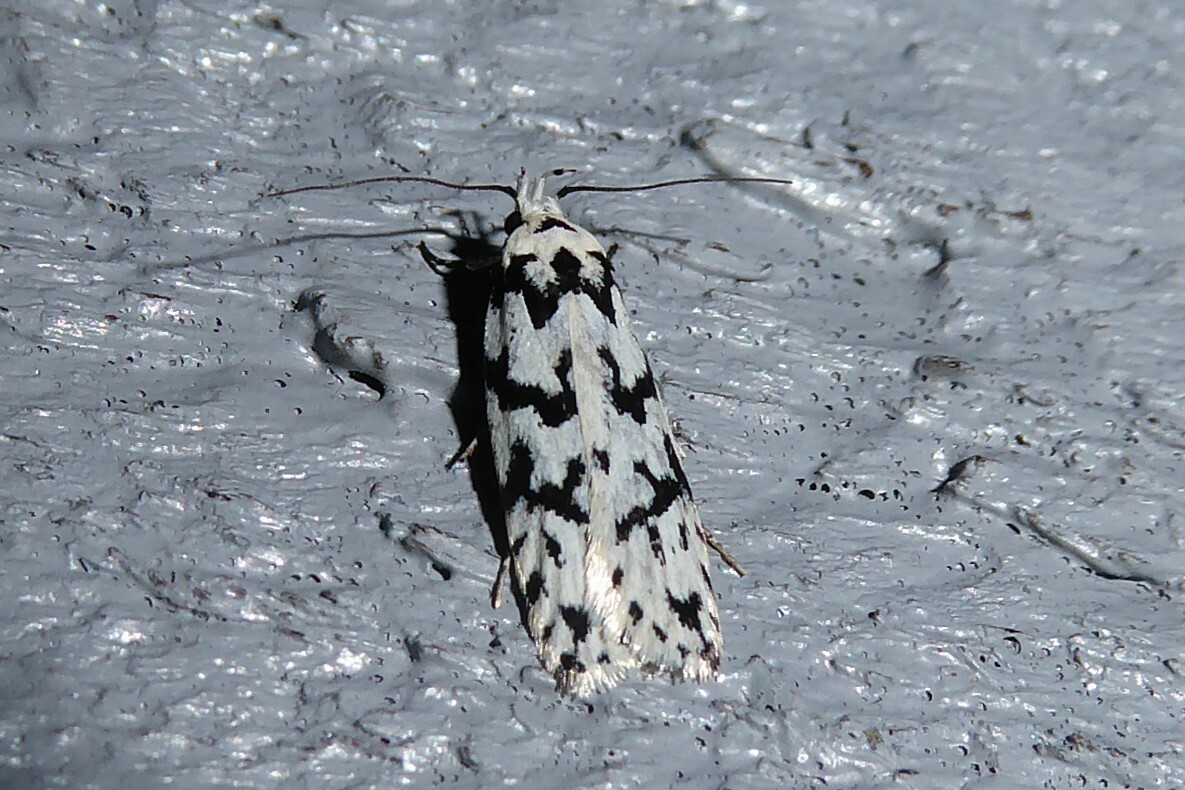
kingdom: Animalia
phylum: Arthropoda
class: Insecta
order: Lepidoptera
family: Oecophoridae
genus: Izatha
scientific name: Izatha katadiktya
